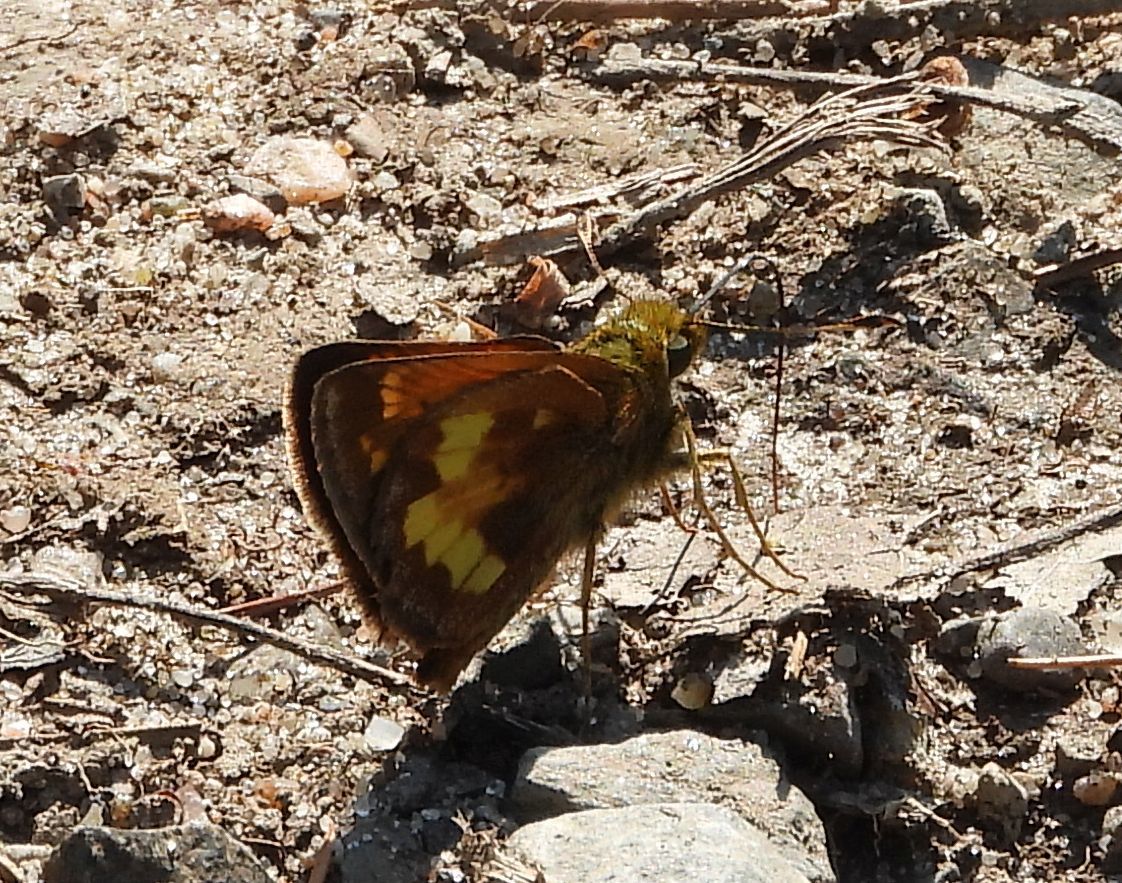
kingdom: Animalia
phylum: Arthropoda
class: Insecta
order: Lepidoptera
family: Hesperiidae
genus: Lon
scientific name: Lon hobomok
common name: Hobomok skipper
